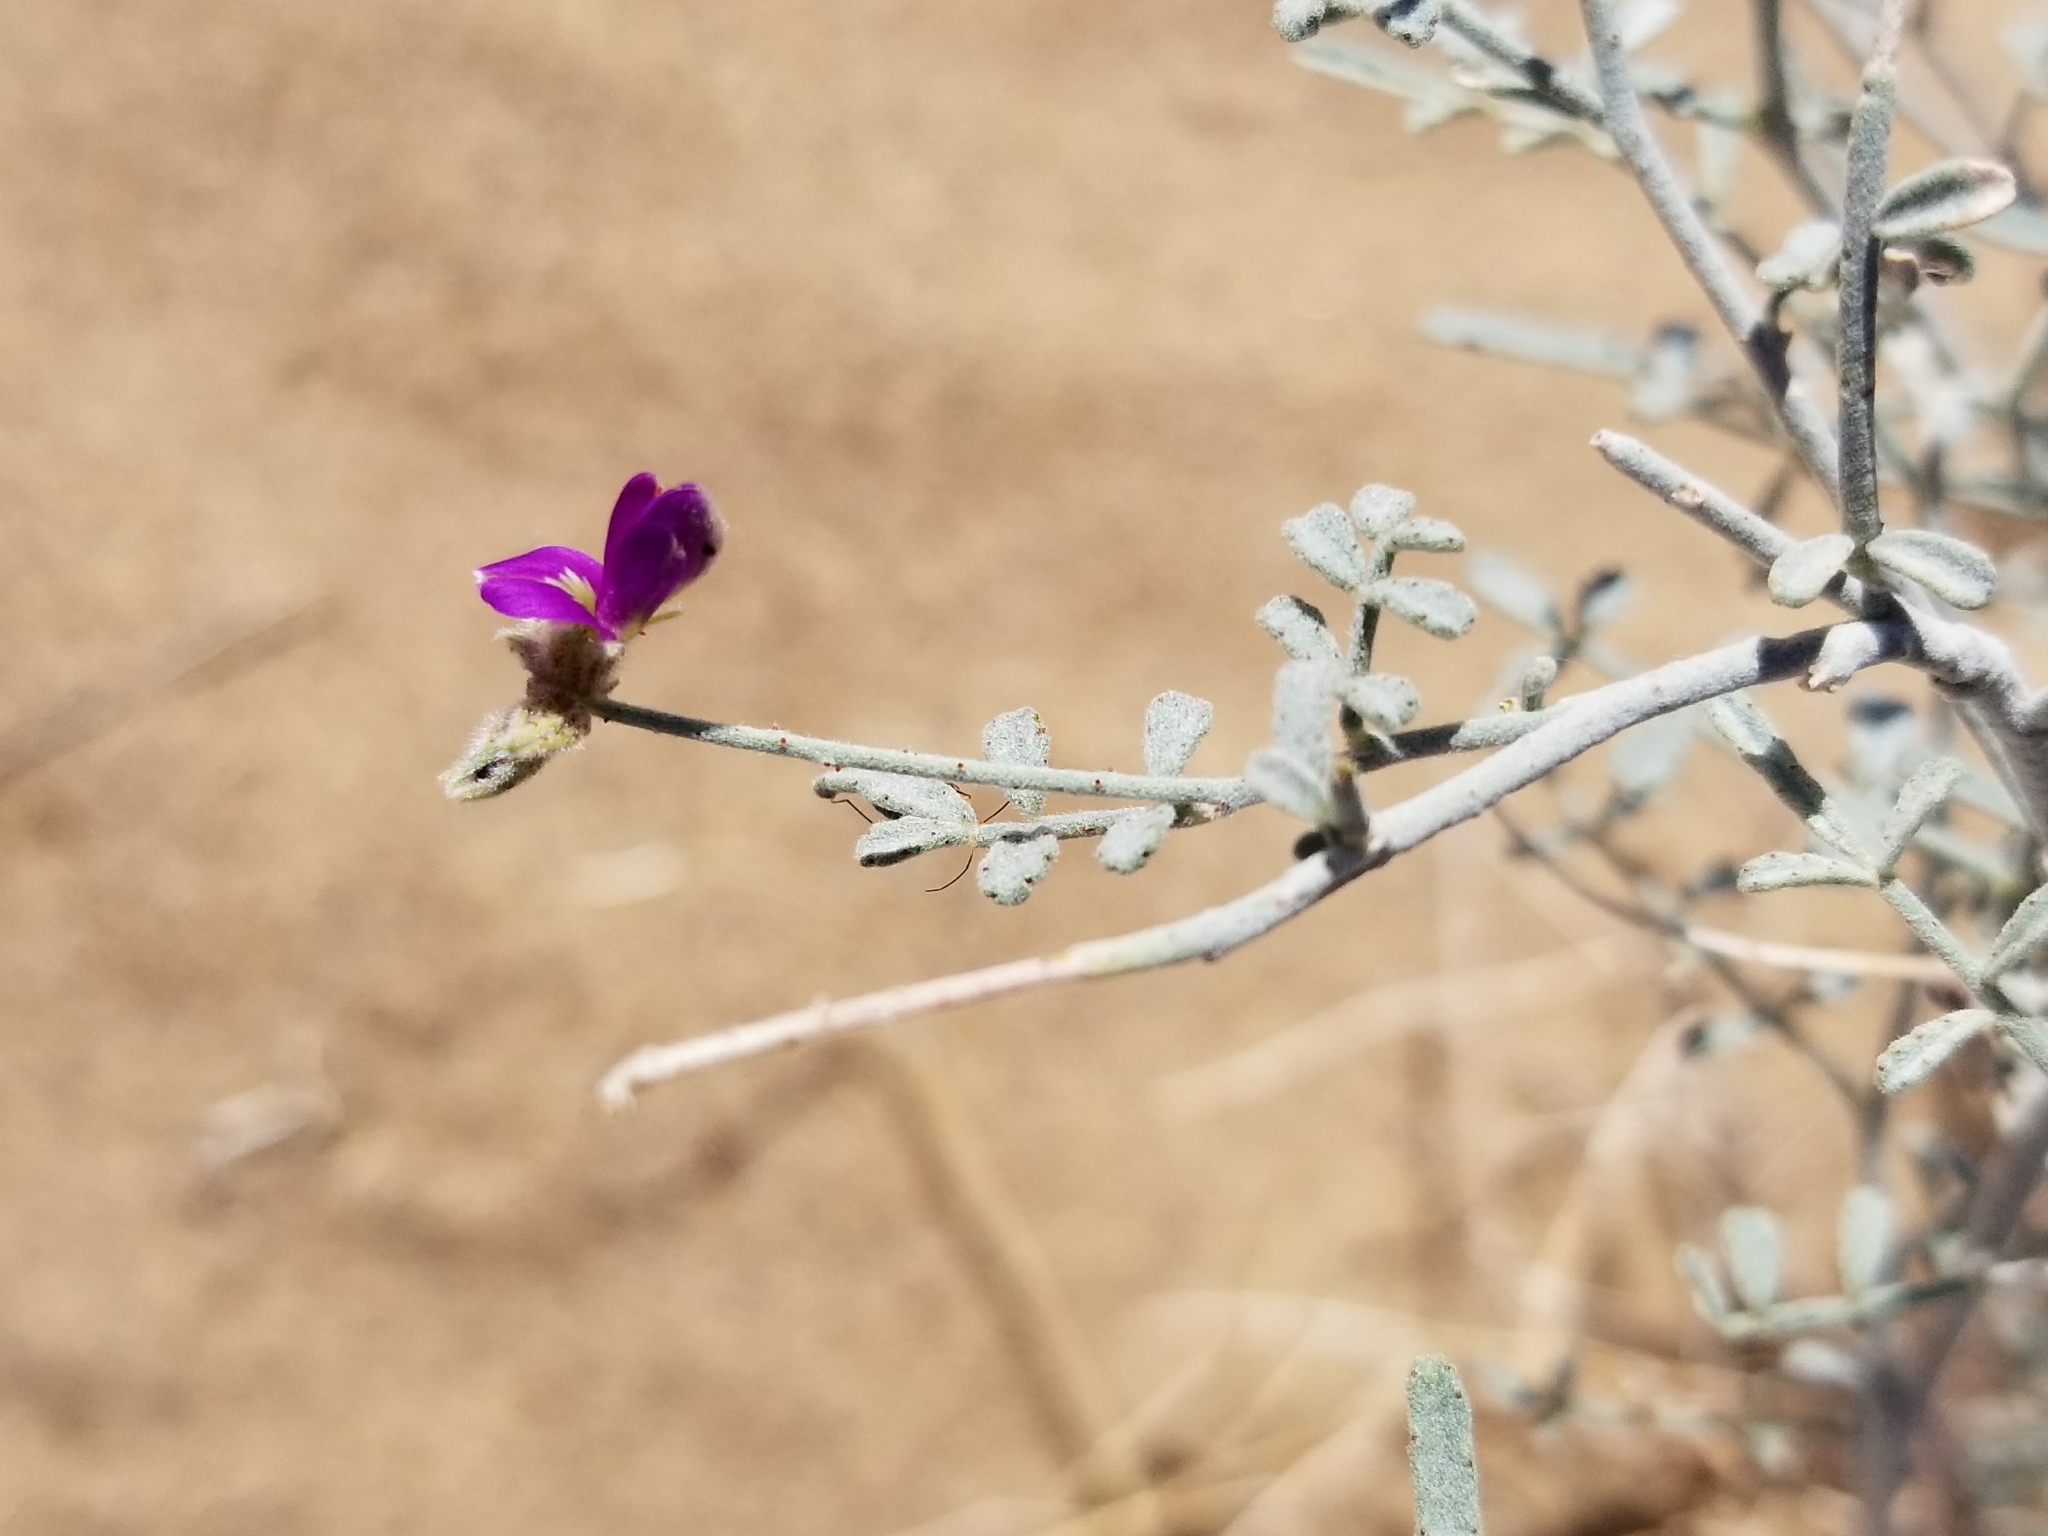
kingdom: Plantae
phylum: Tracheophyta
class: Magnoliopsida
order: Fabales
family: Fabaceae
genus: Psorothamnus
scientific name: Psorothamnus emoryi
